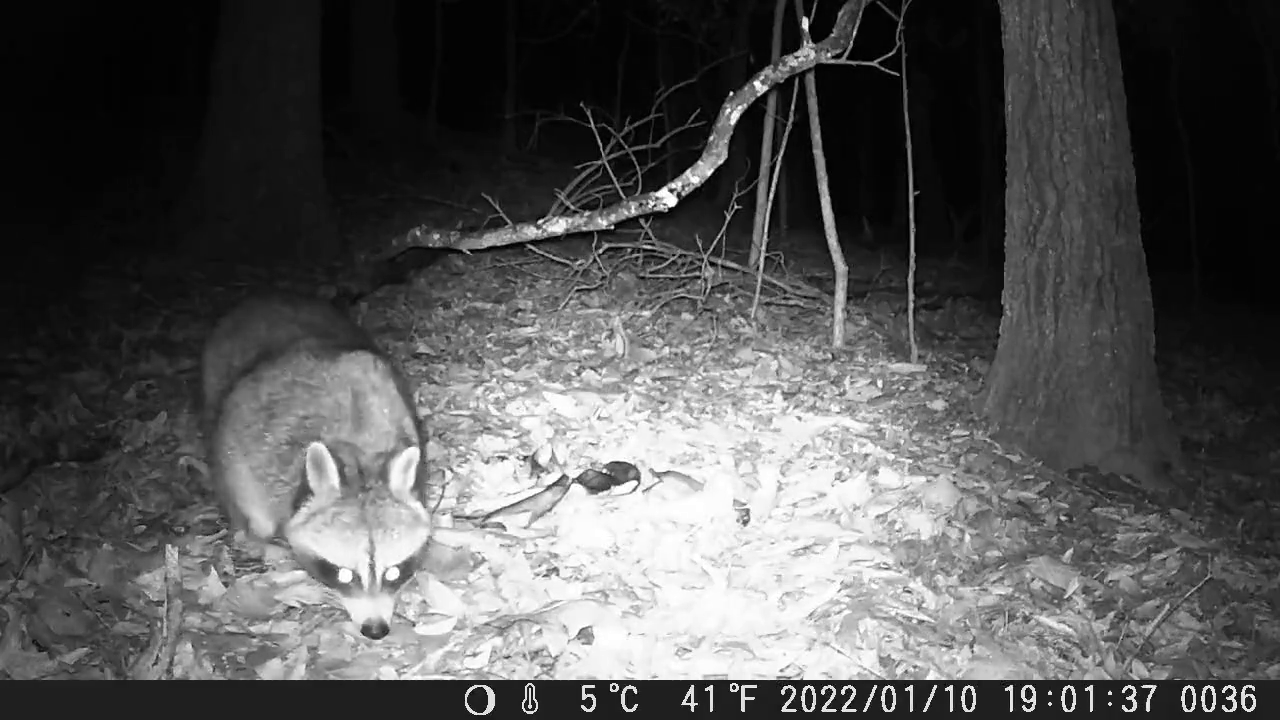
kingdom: Animalia
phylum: Chordata
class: Mammalia
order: Carnivora
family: Procyonidae
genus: Procyon
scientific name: Procyon lotor
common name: Raccoon
